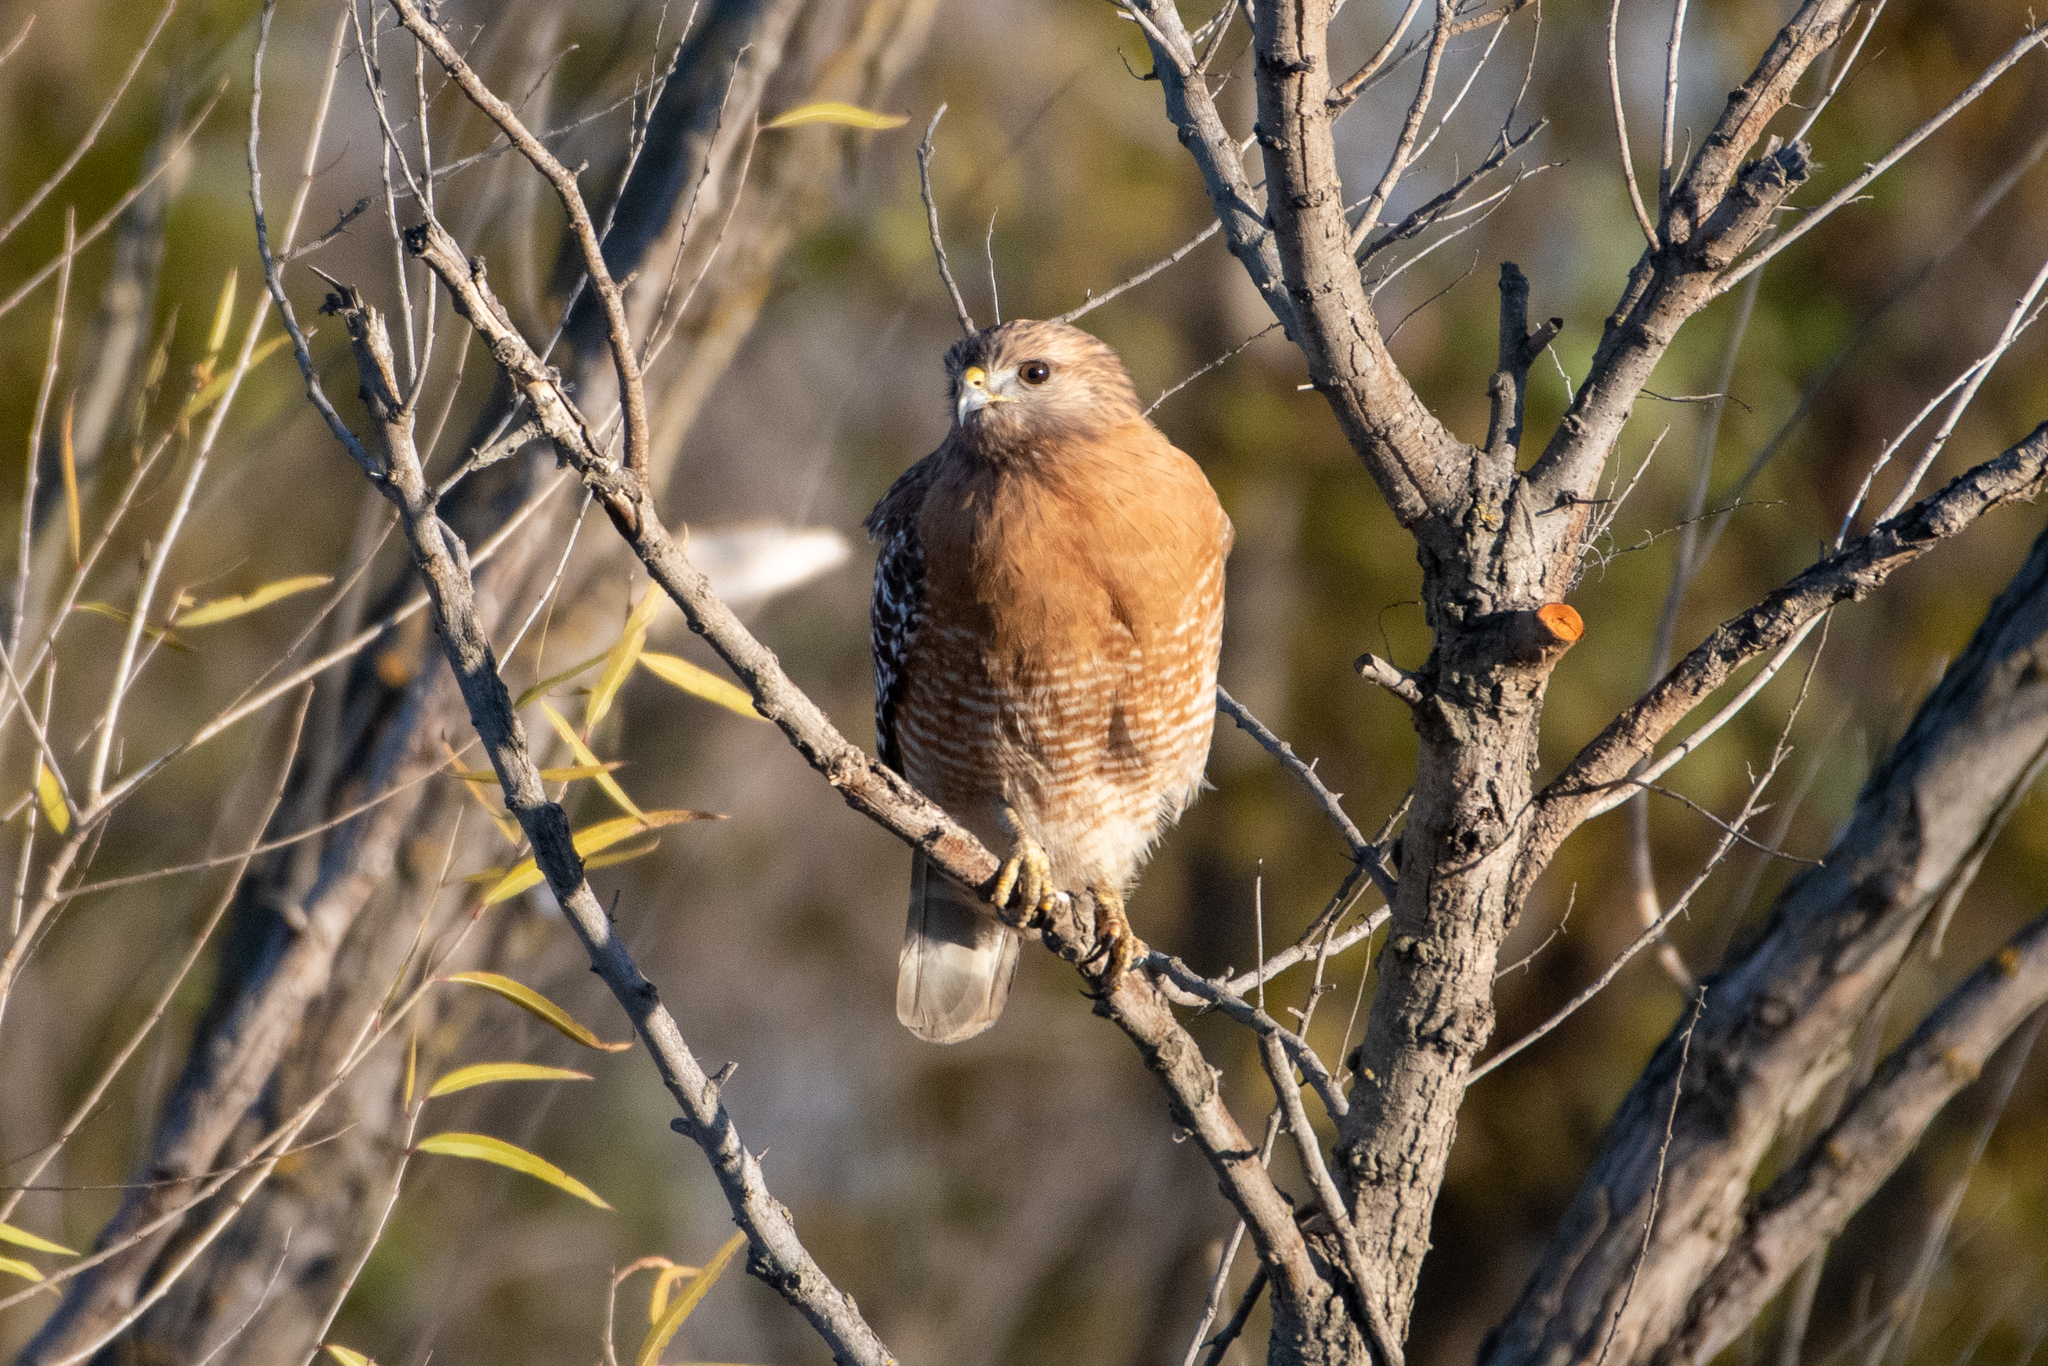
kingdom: Animalia
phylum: Chordata
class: Aves
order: Accipitriformes
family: Accipitridae
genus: Buteo
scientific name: Buteo lineatus
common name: Red-shouldered hawk
